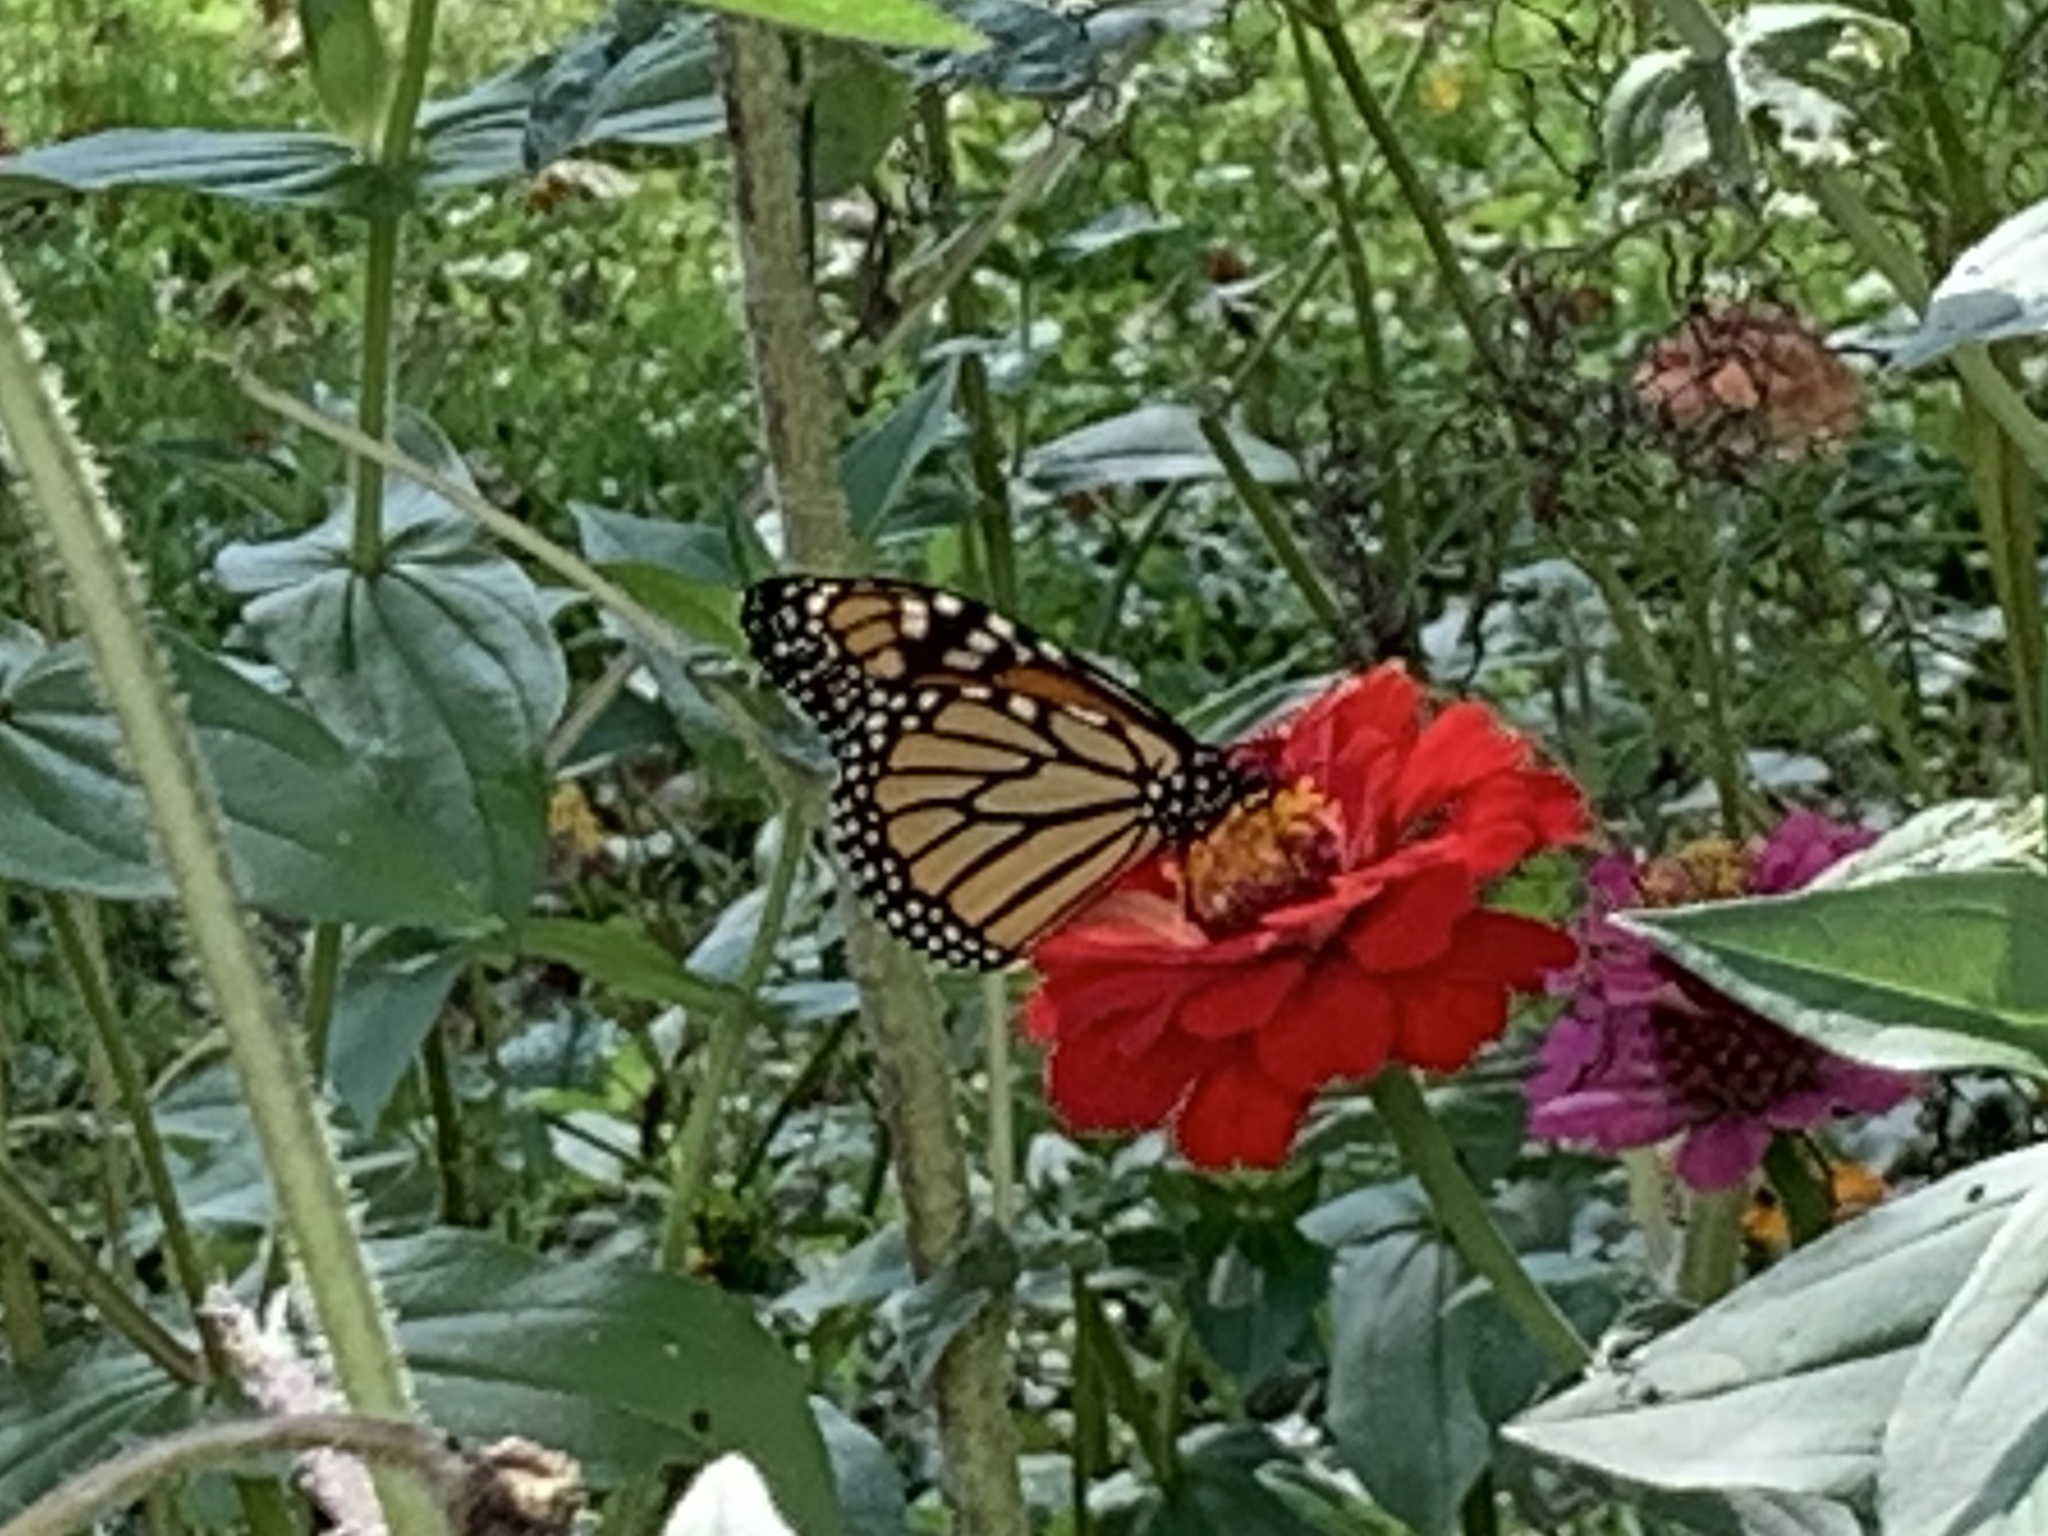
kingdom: Animalia
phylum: Arthropoda
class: Insecta
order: Lepidoptera
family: Nymphalidae
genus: Danaus
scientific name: Danaus plexippus
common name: Monarch
